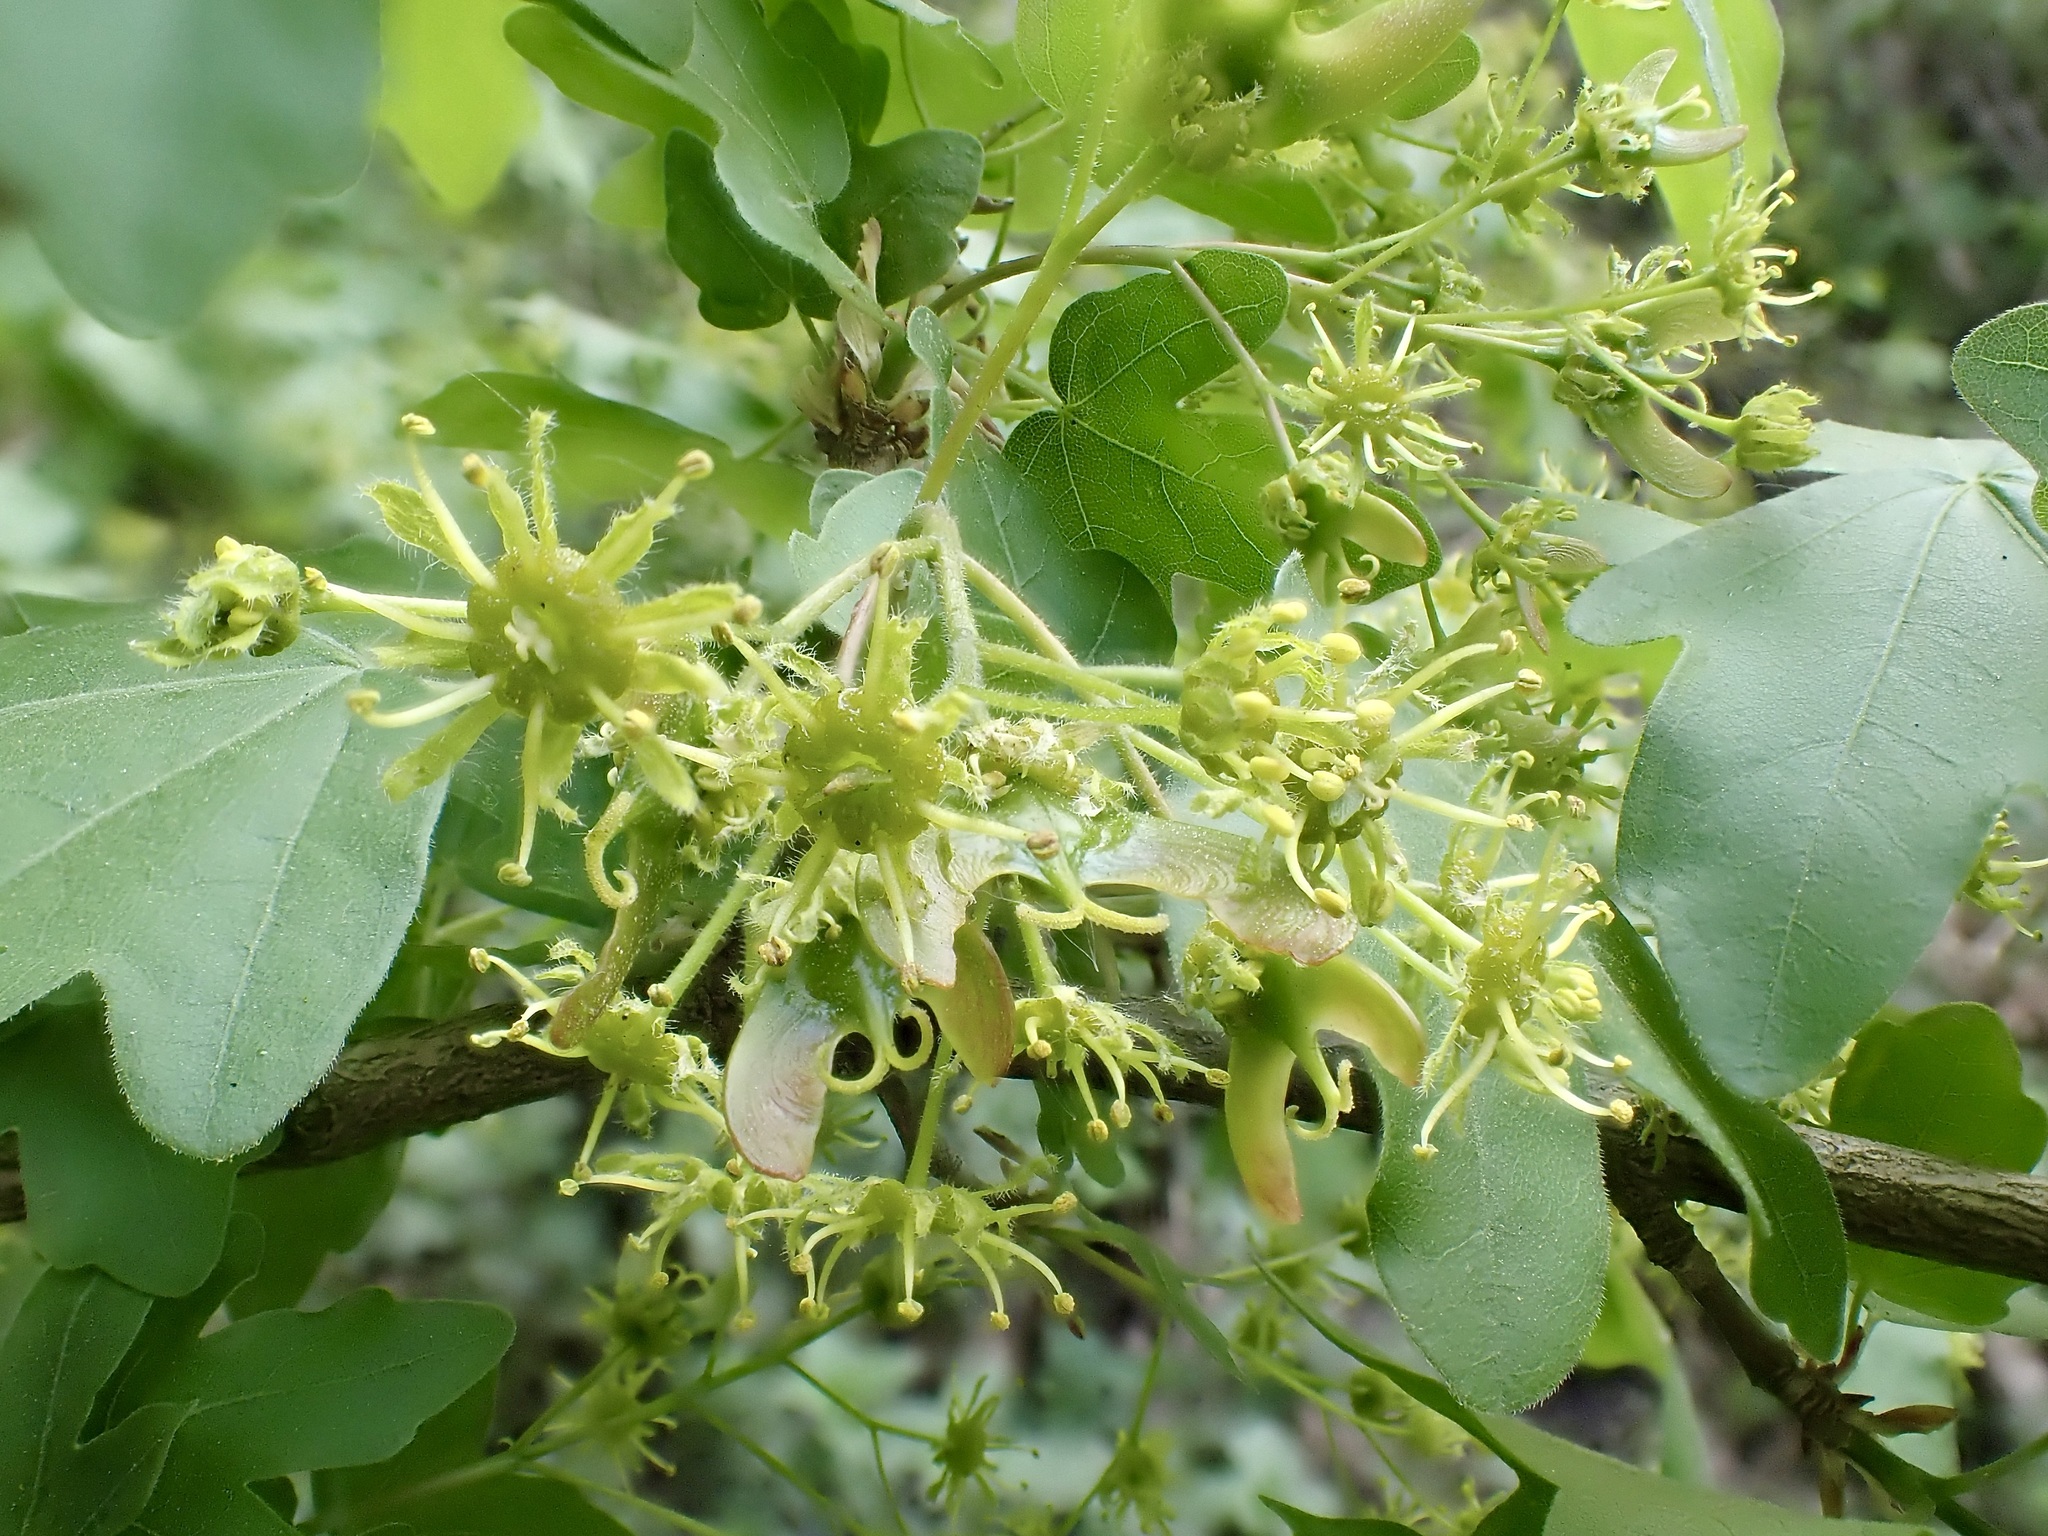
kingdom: Plantae
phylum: Tracheophyta
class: Magnoliopsida
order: Sapindales
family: Sapindaceae
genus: Acer
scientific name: Acer campestre
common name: Field maple
